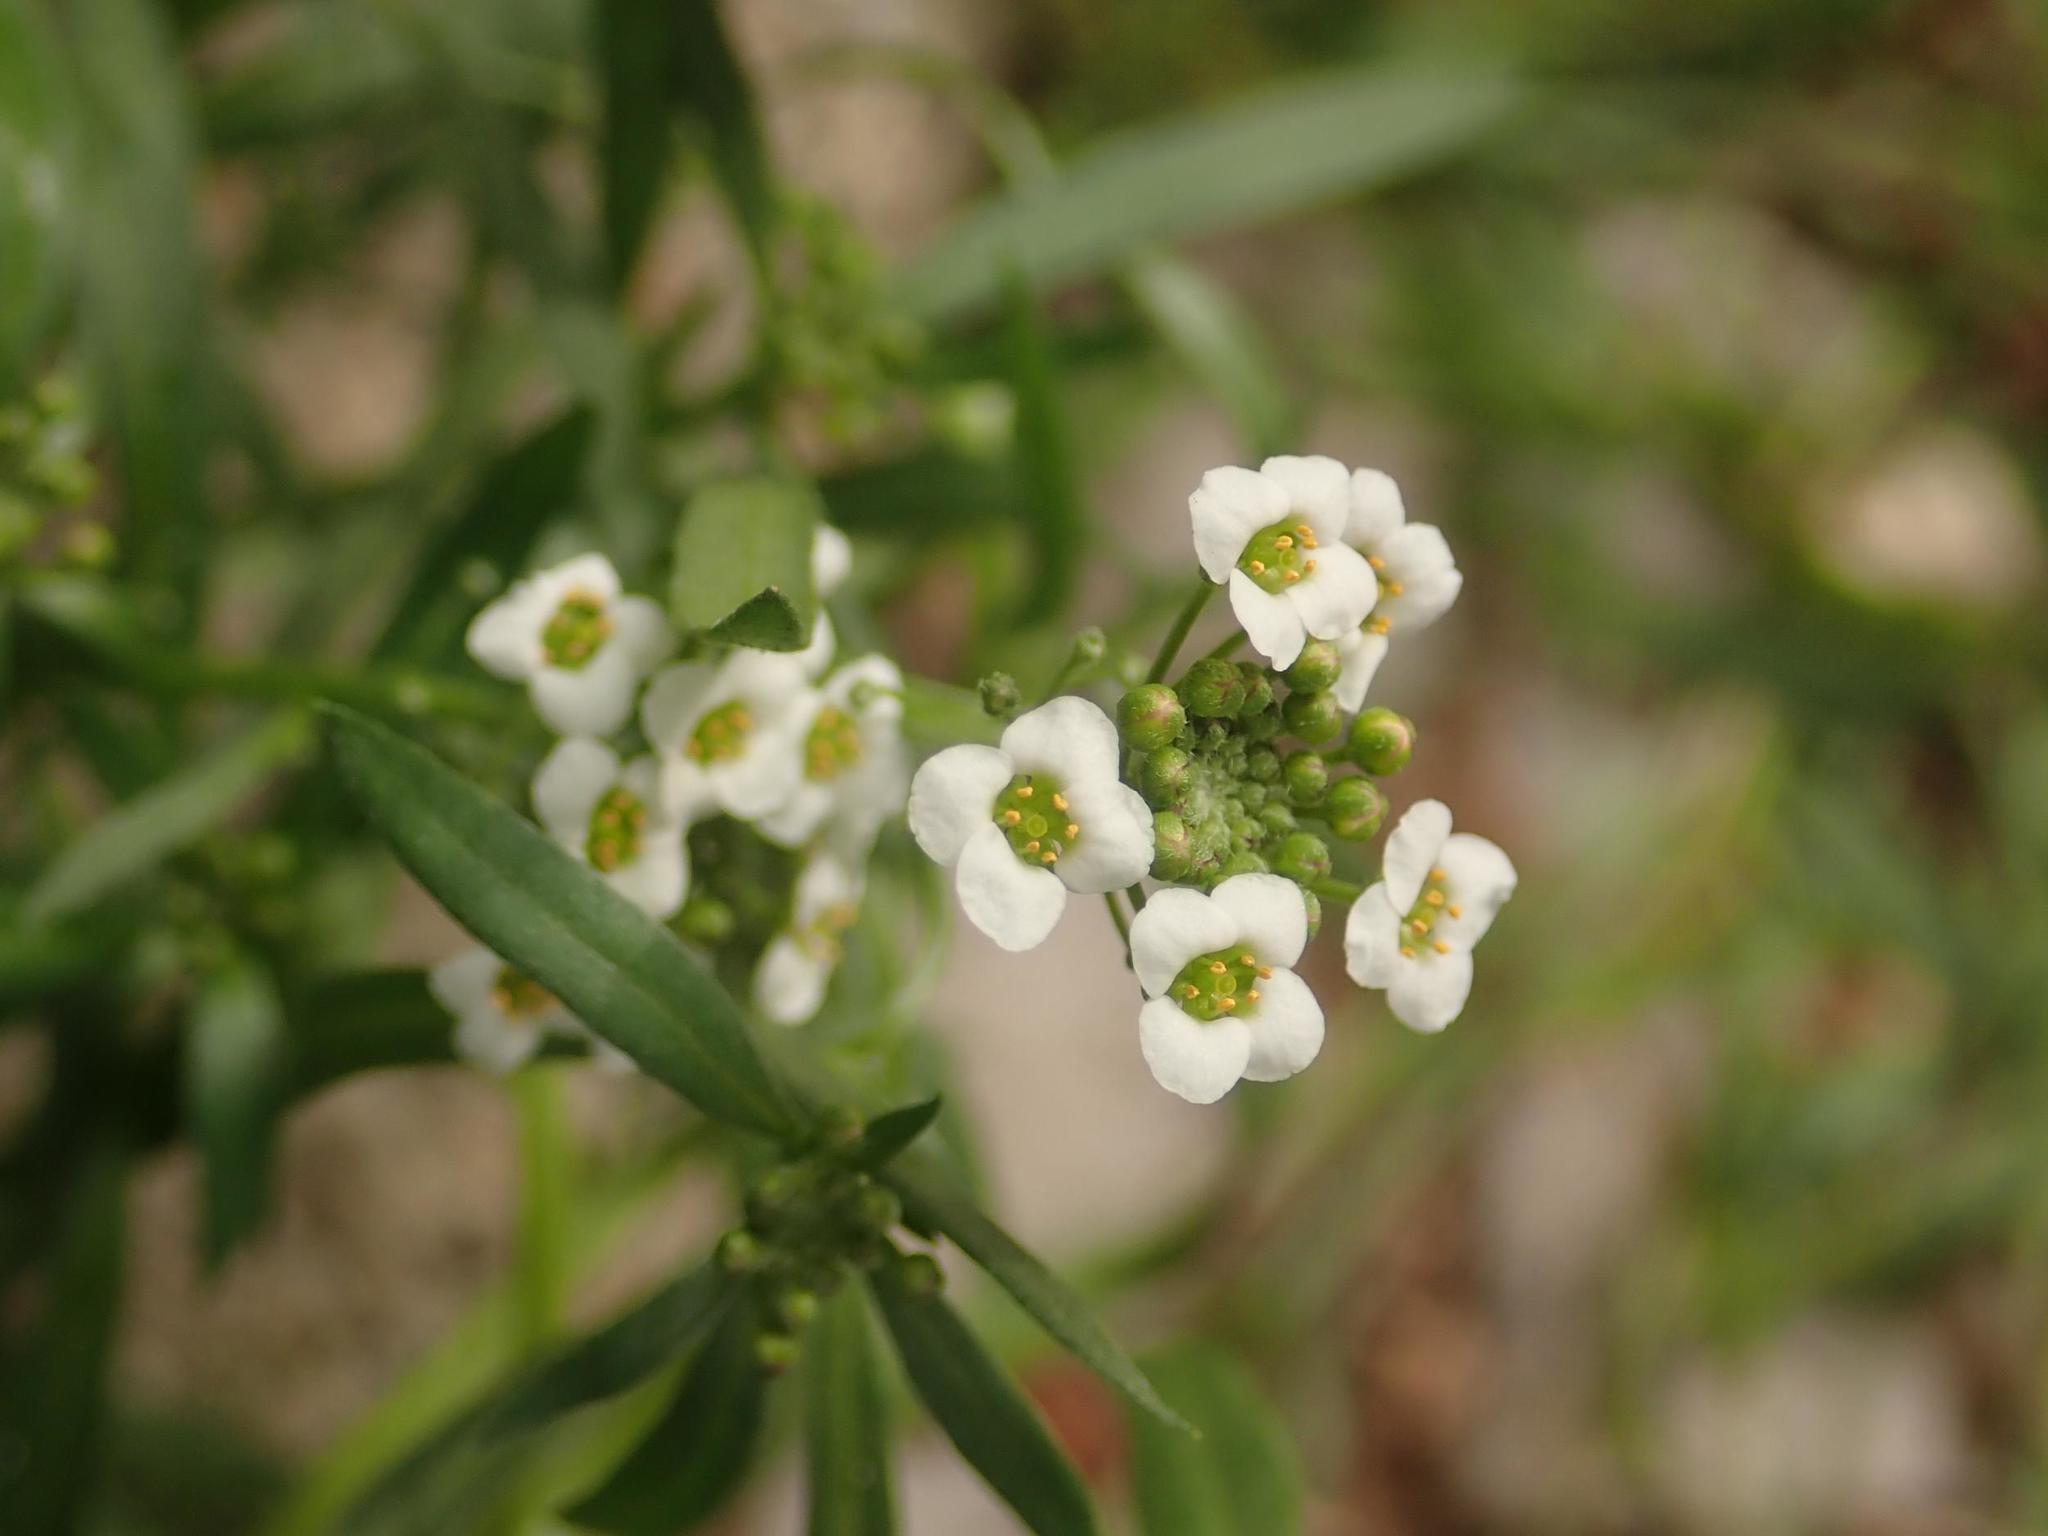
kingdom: Plantae
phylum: Tracheophyta
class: Magnoliopsida
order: Brassicales
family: Brassicaceae
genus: Lobularia
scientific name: Lobularia maritima
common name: Sweet alison
